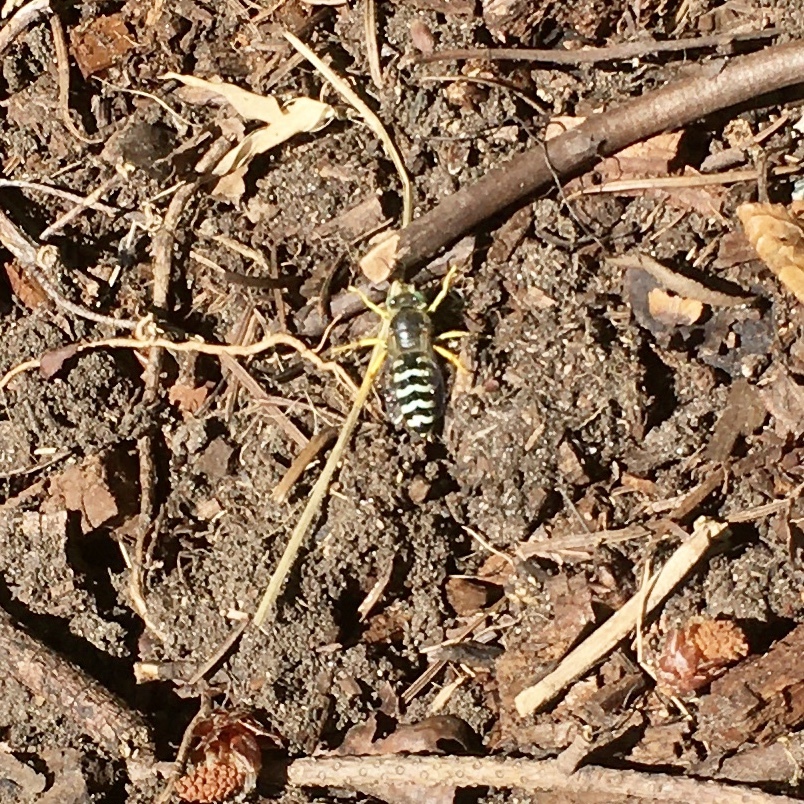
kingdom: Animalia
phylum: Arthropoda
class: Insecta
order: Hymenoptera
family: Crabronidae
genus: Bembix
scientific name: Bembix americana
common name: American sand wasp
